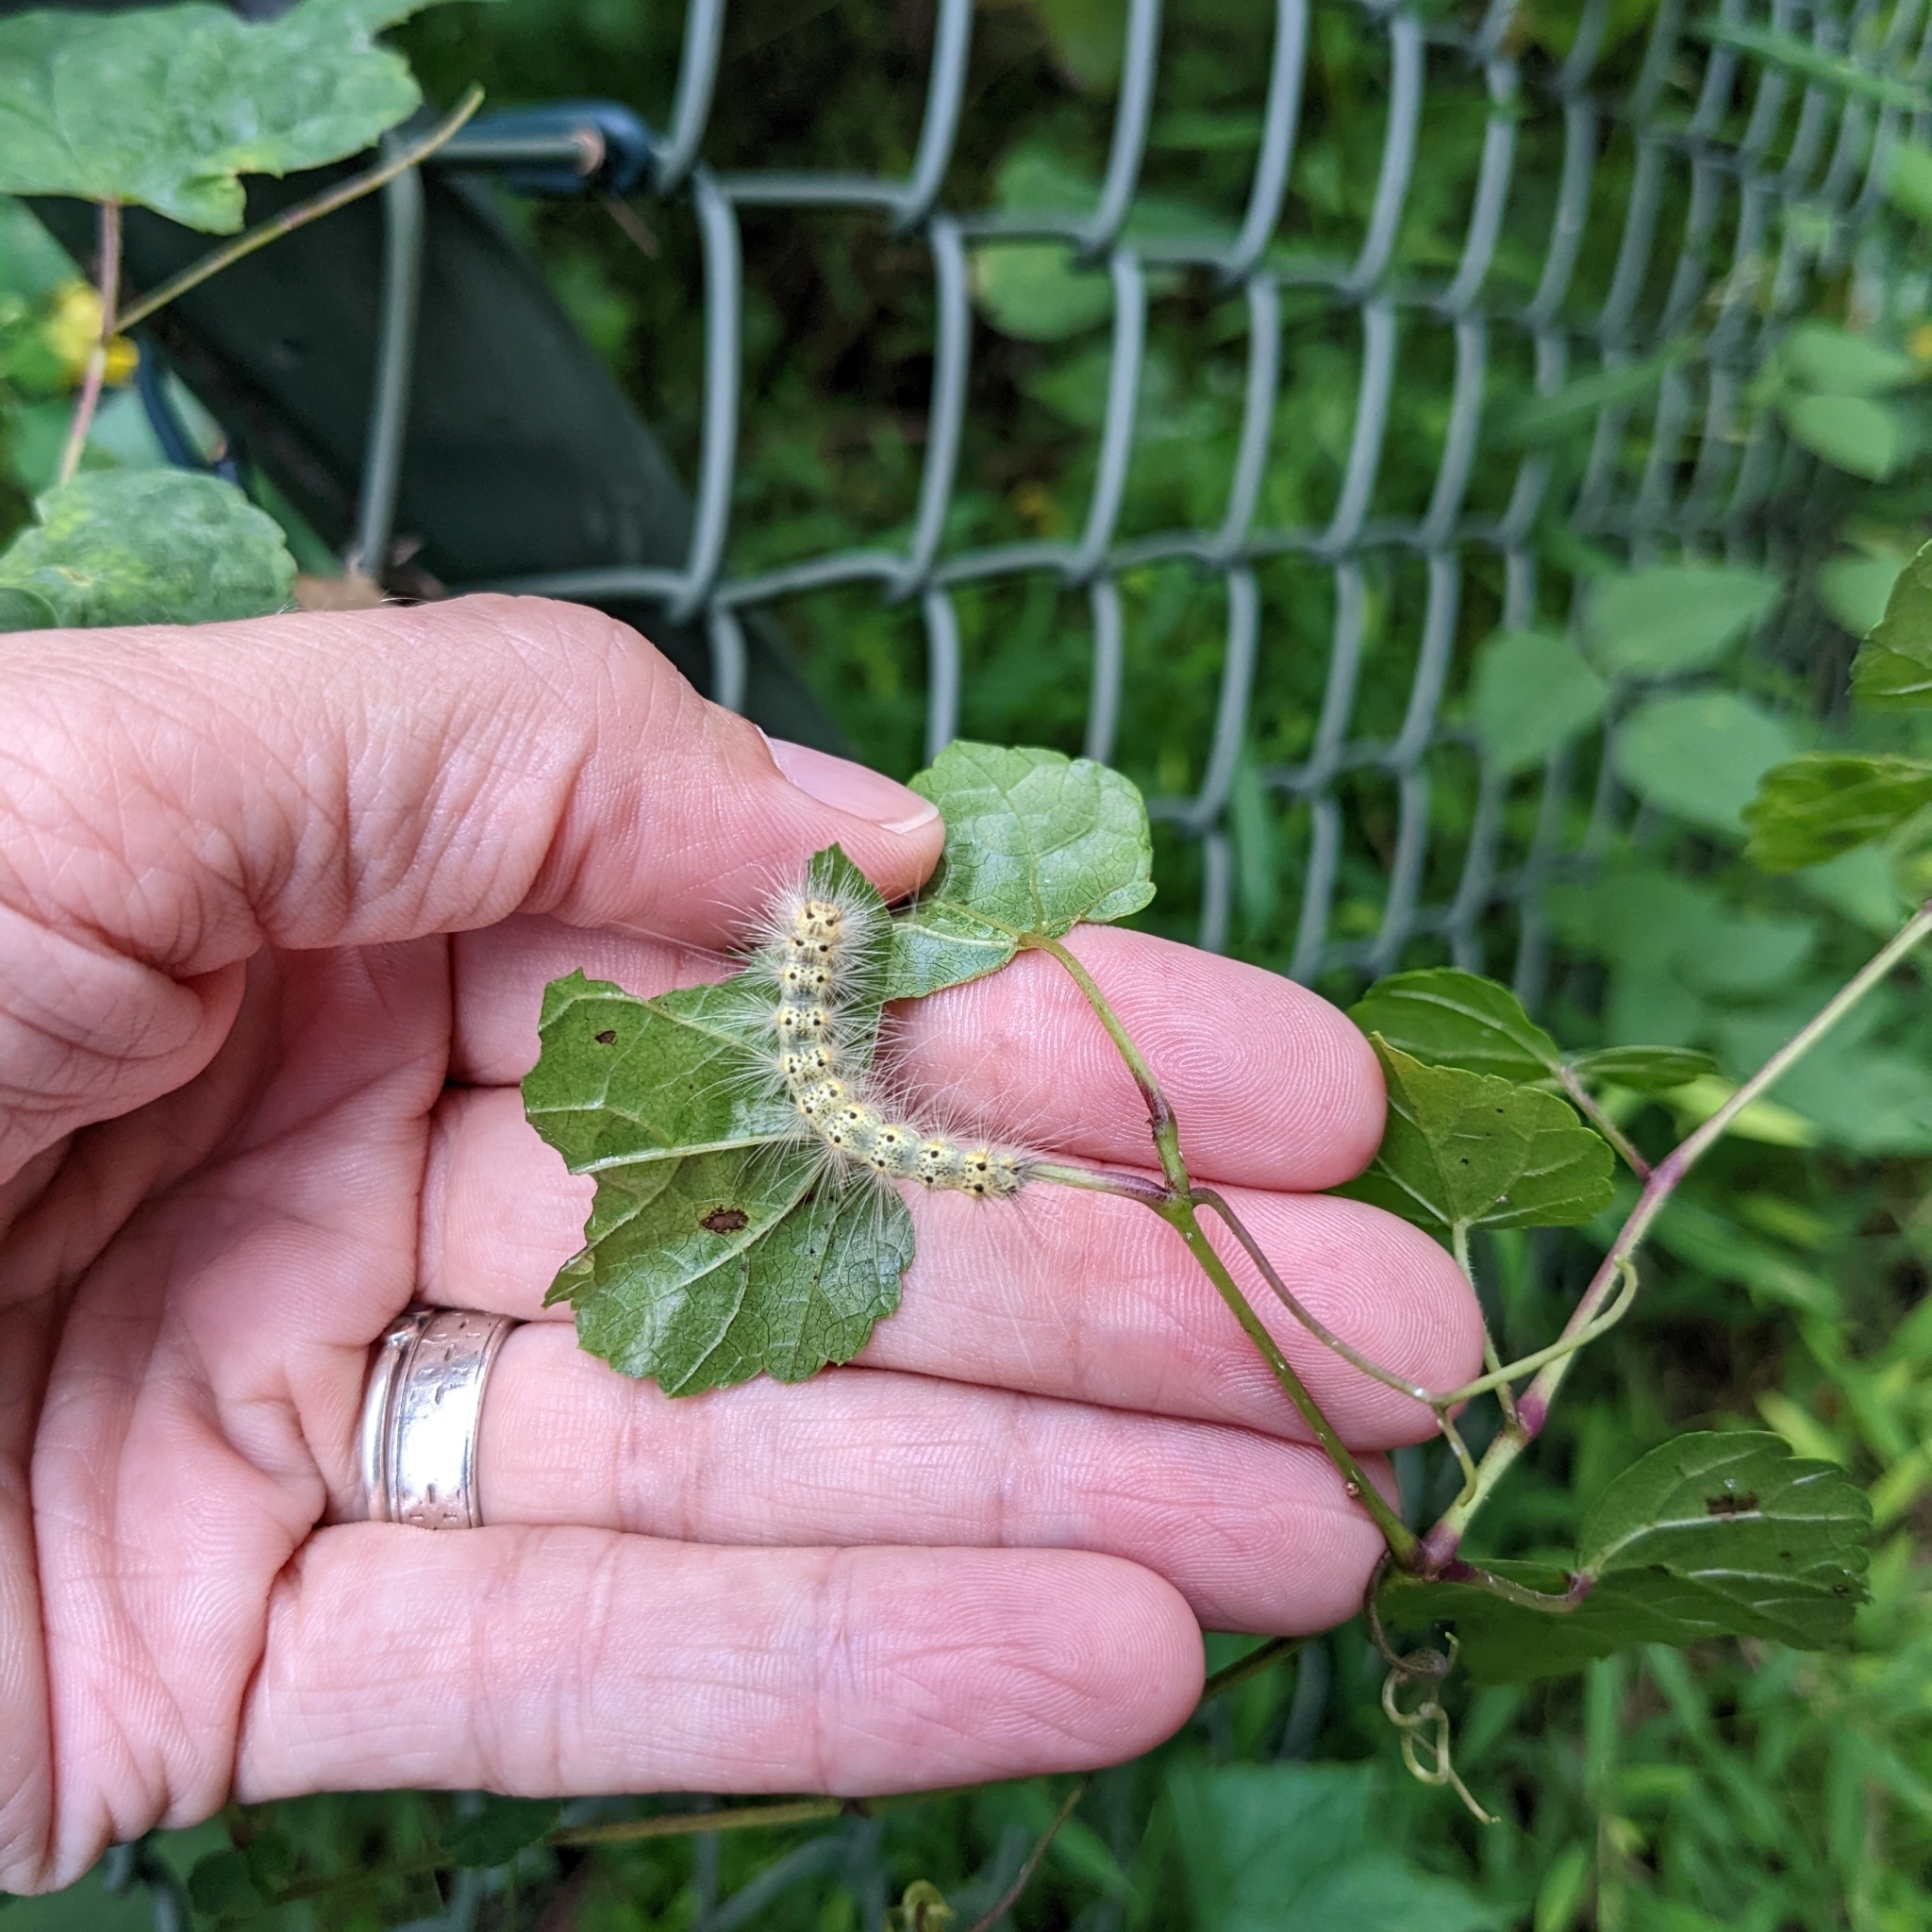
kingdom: Animalia
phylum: Arthropoda
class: Insecta
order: Lepidoptera
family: Erebidae
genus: Hyphantria
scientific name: Hyphantria cunea
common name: American white moth
